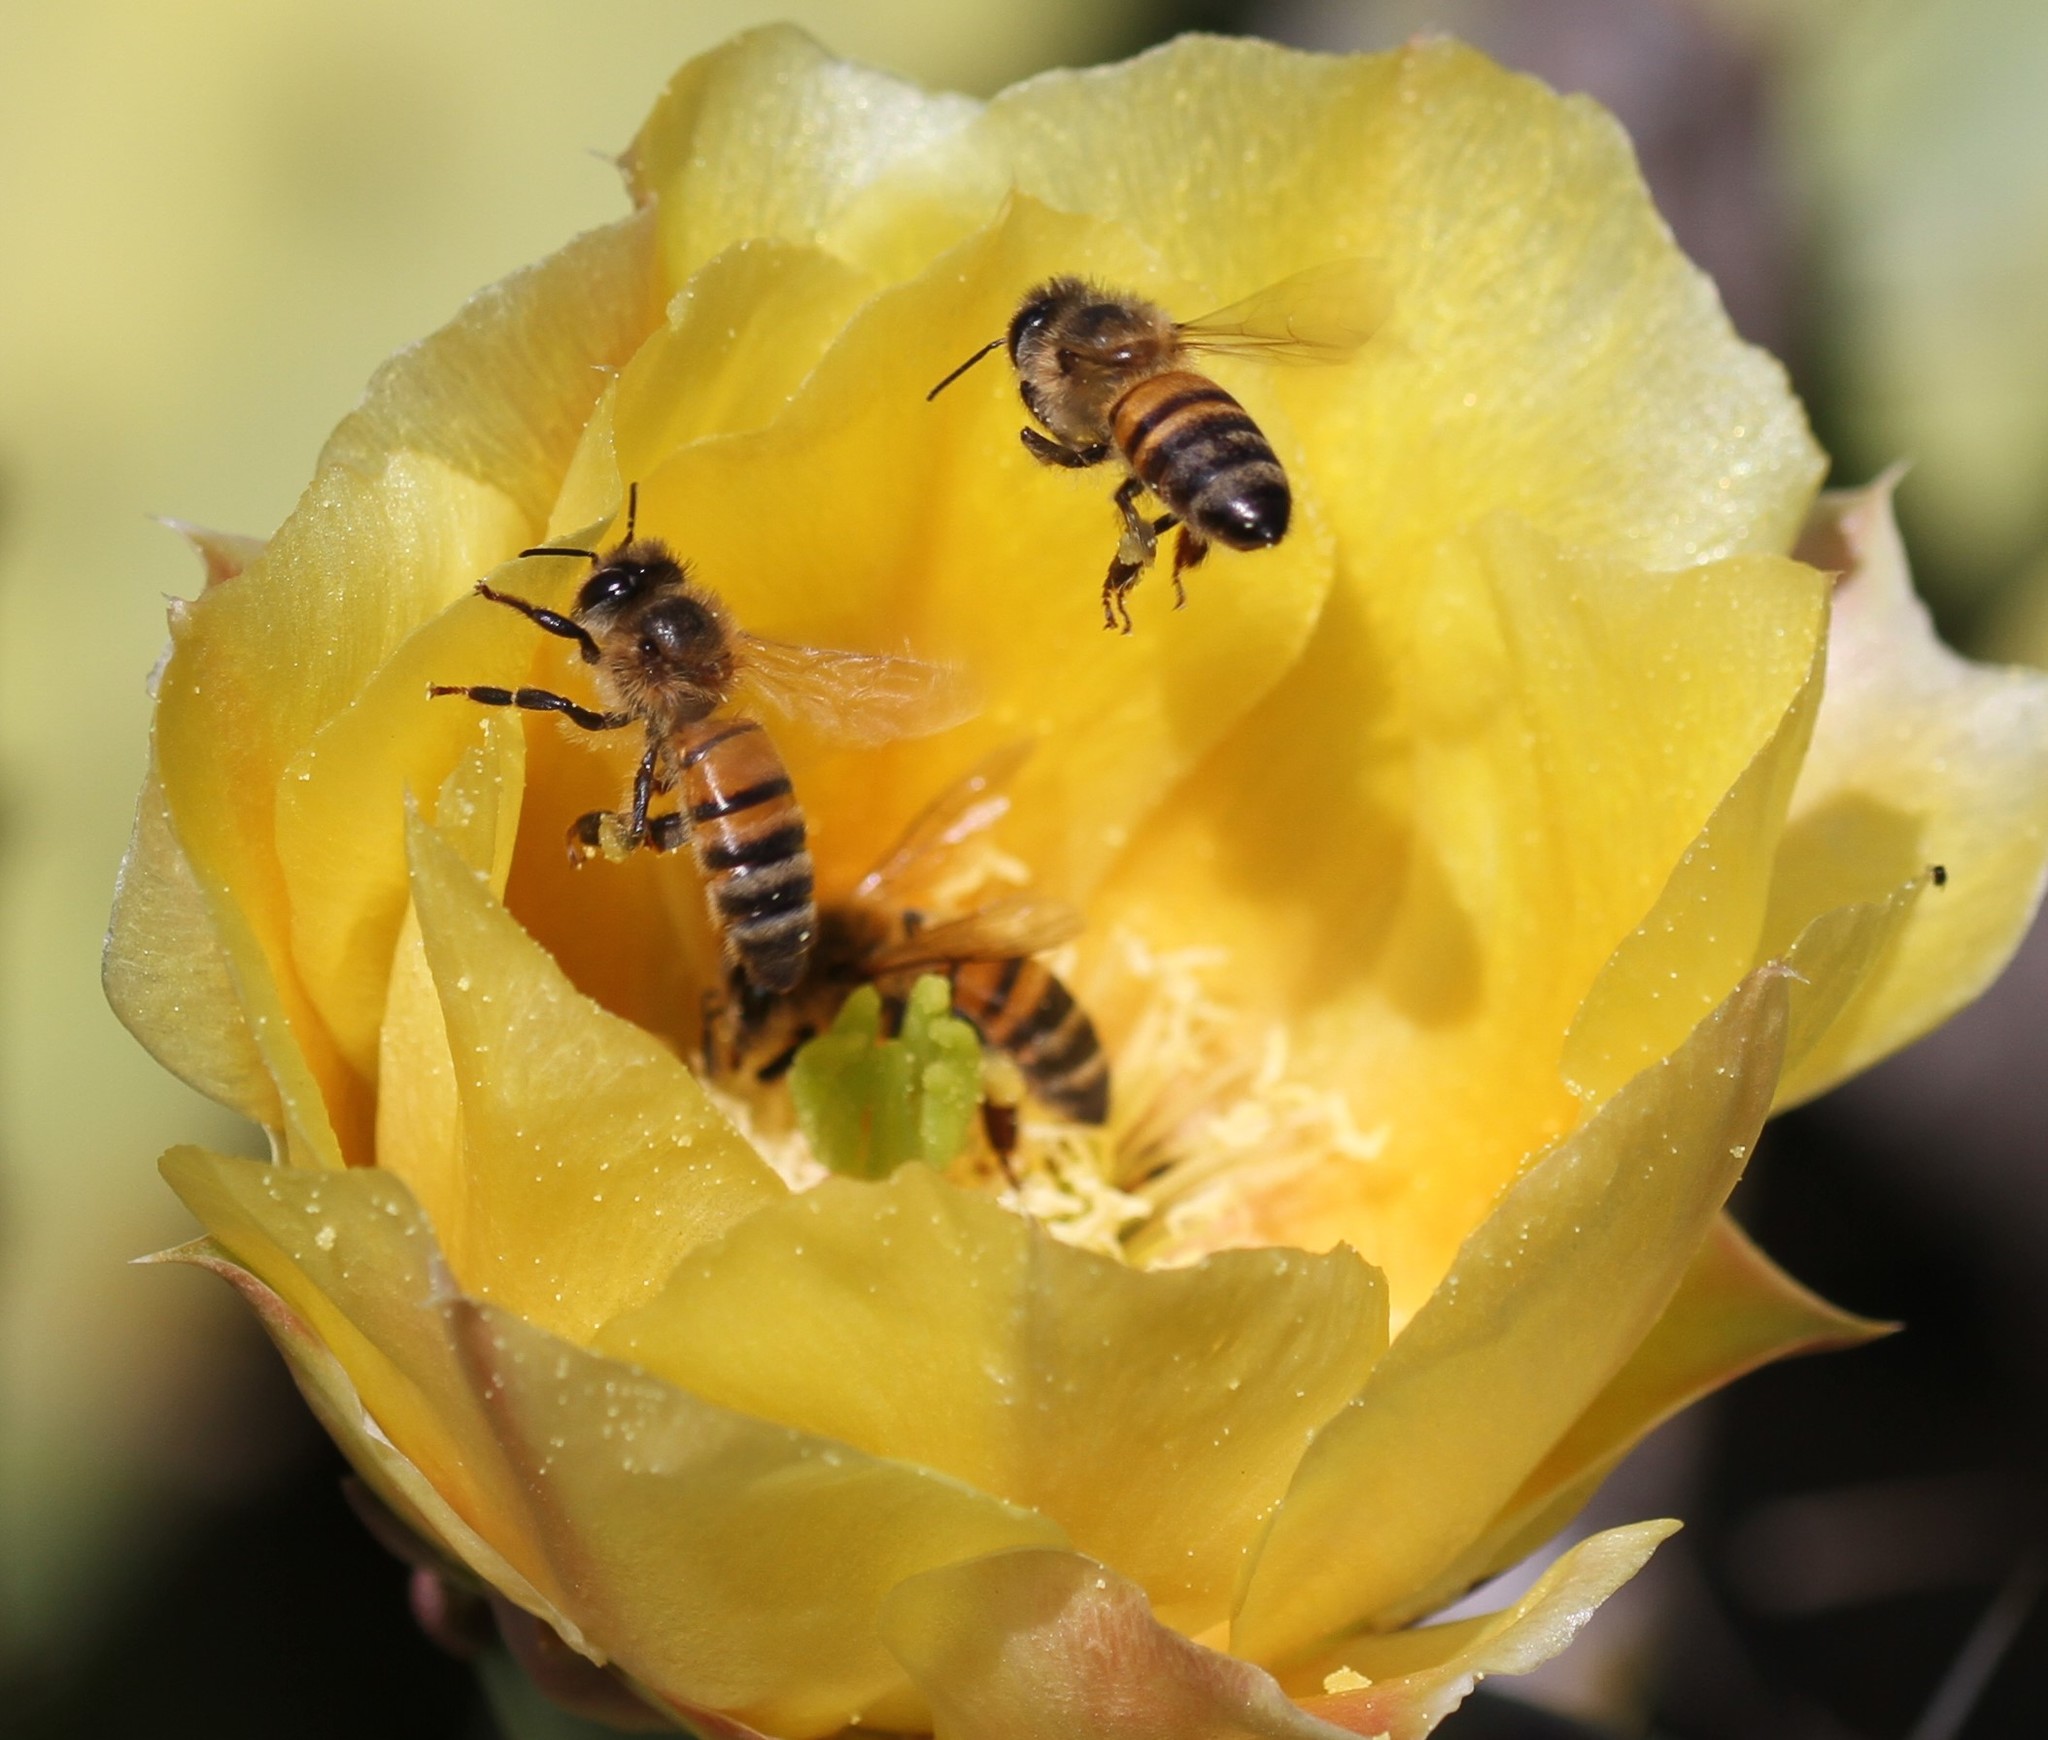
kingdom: Animalia
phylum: Arthropoda
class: Insecta
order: Hymenoptera
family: Apidae
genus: Apis
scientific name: Apis mellifera
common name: Honey bee
